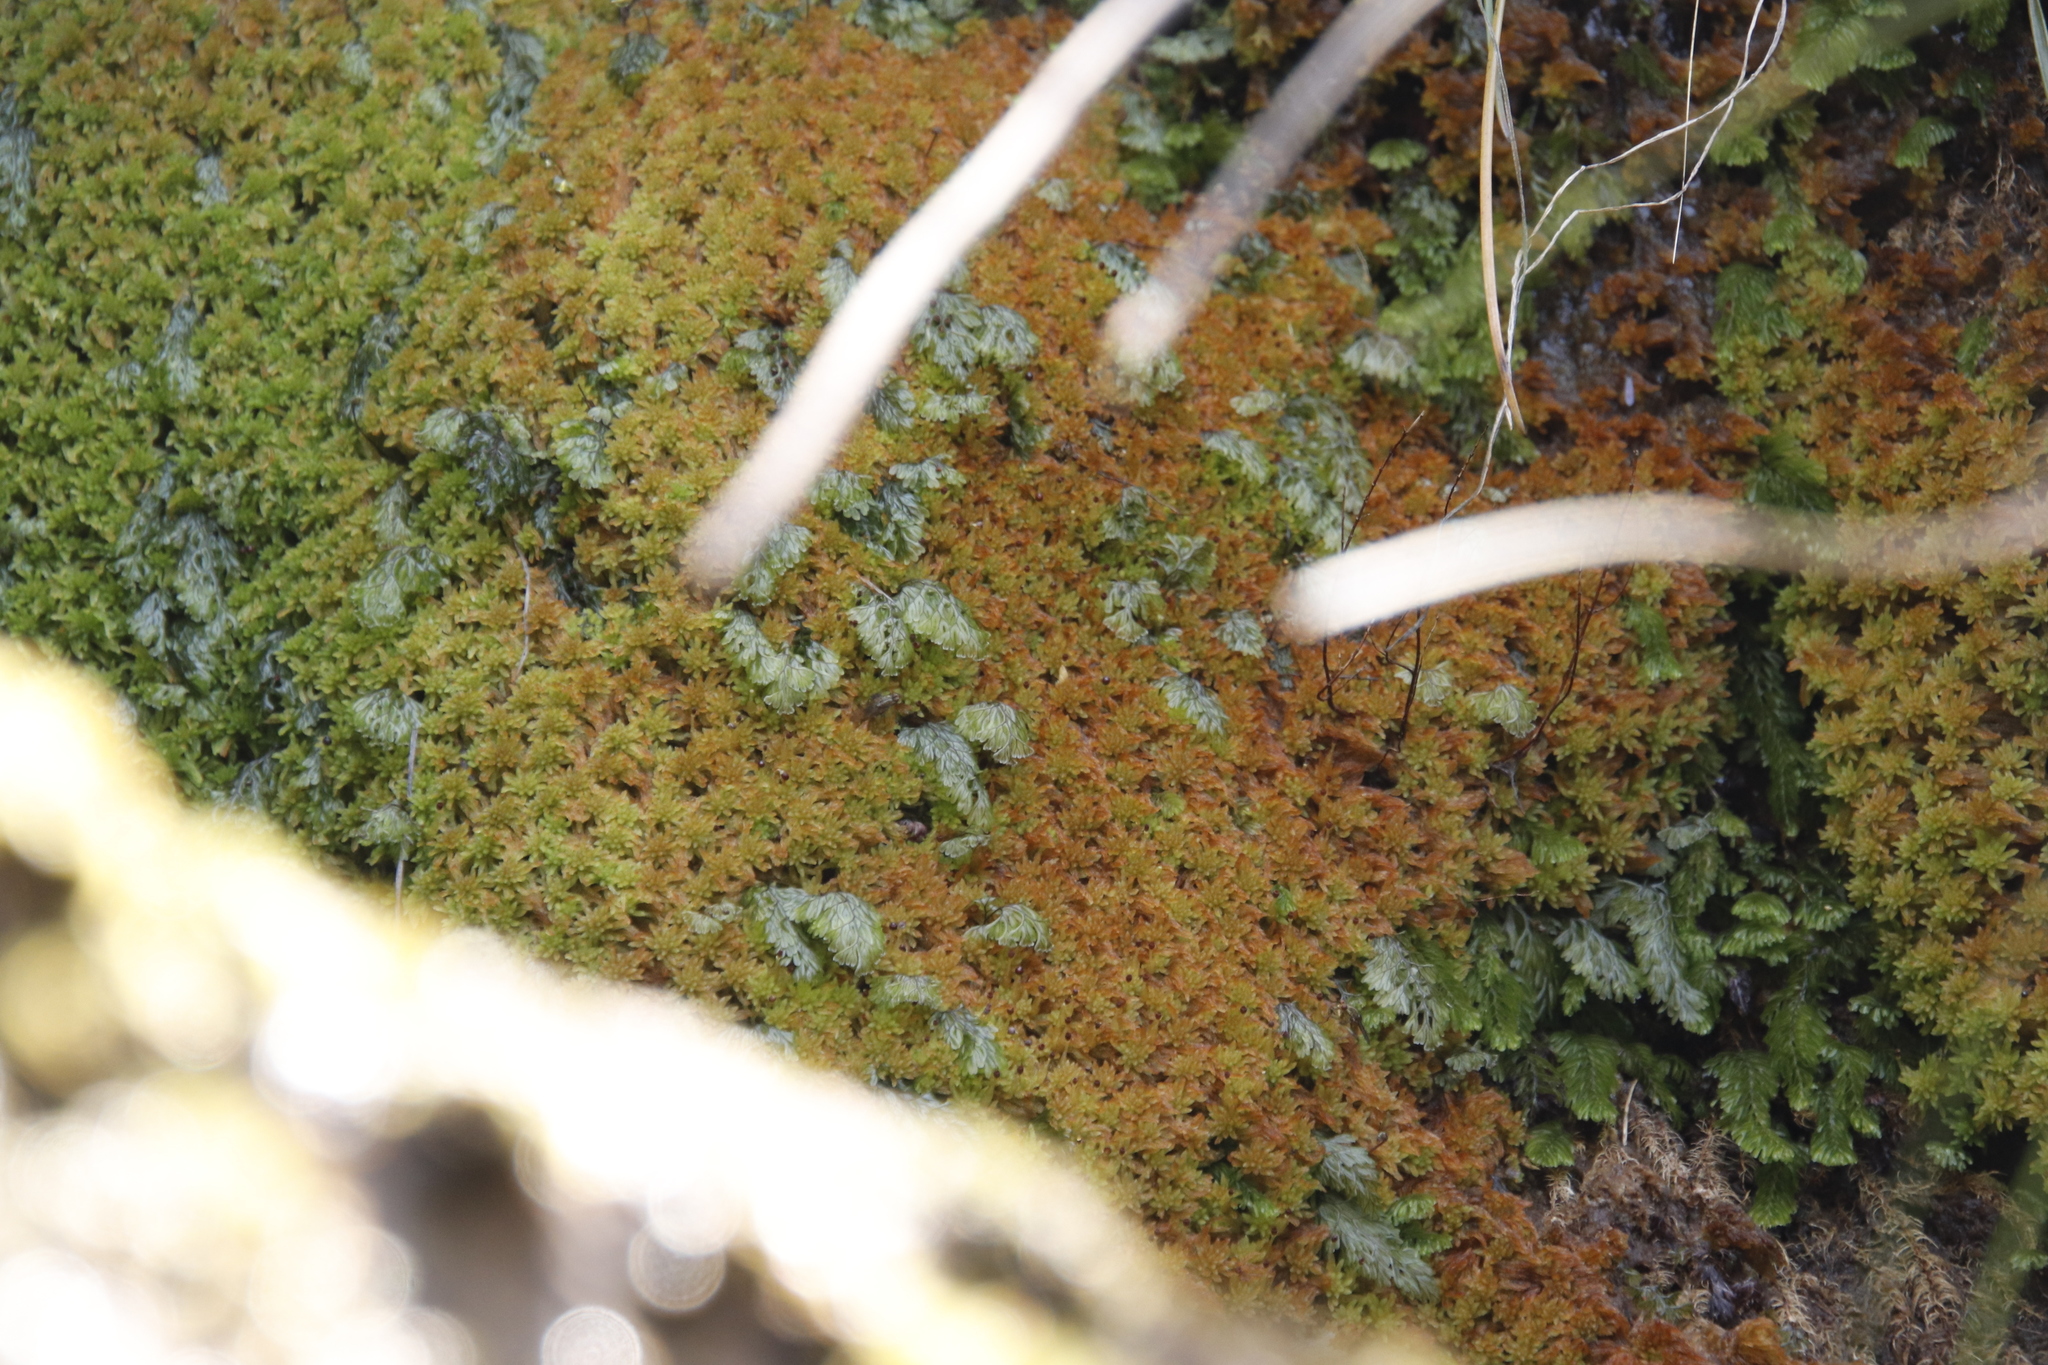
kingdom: Plantae
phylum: Tracheophyta
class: Polypodiopsida
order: Hymenophyllales
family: Hymenophyllaceae
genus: Hymenophyllum
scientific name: Hymenophyllum capense
